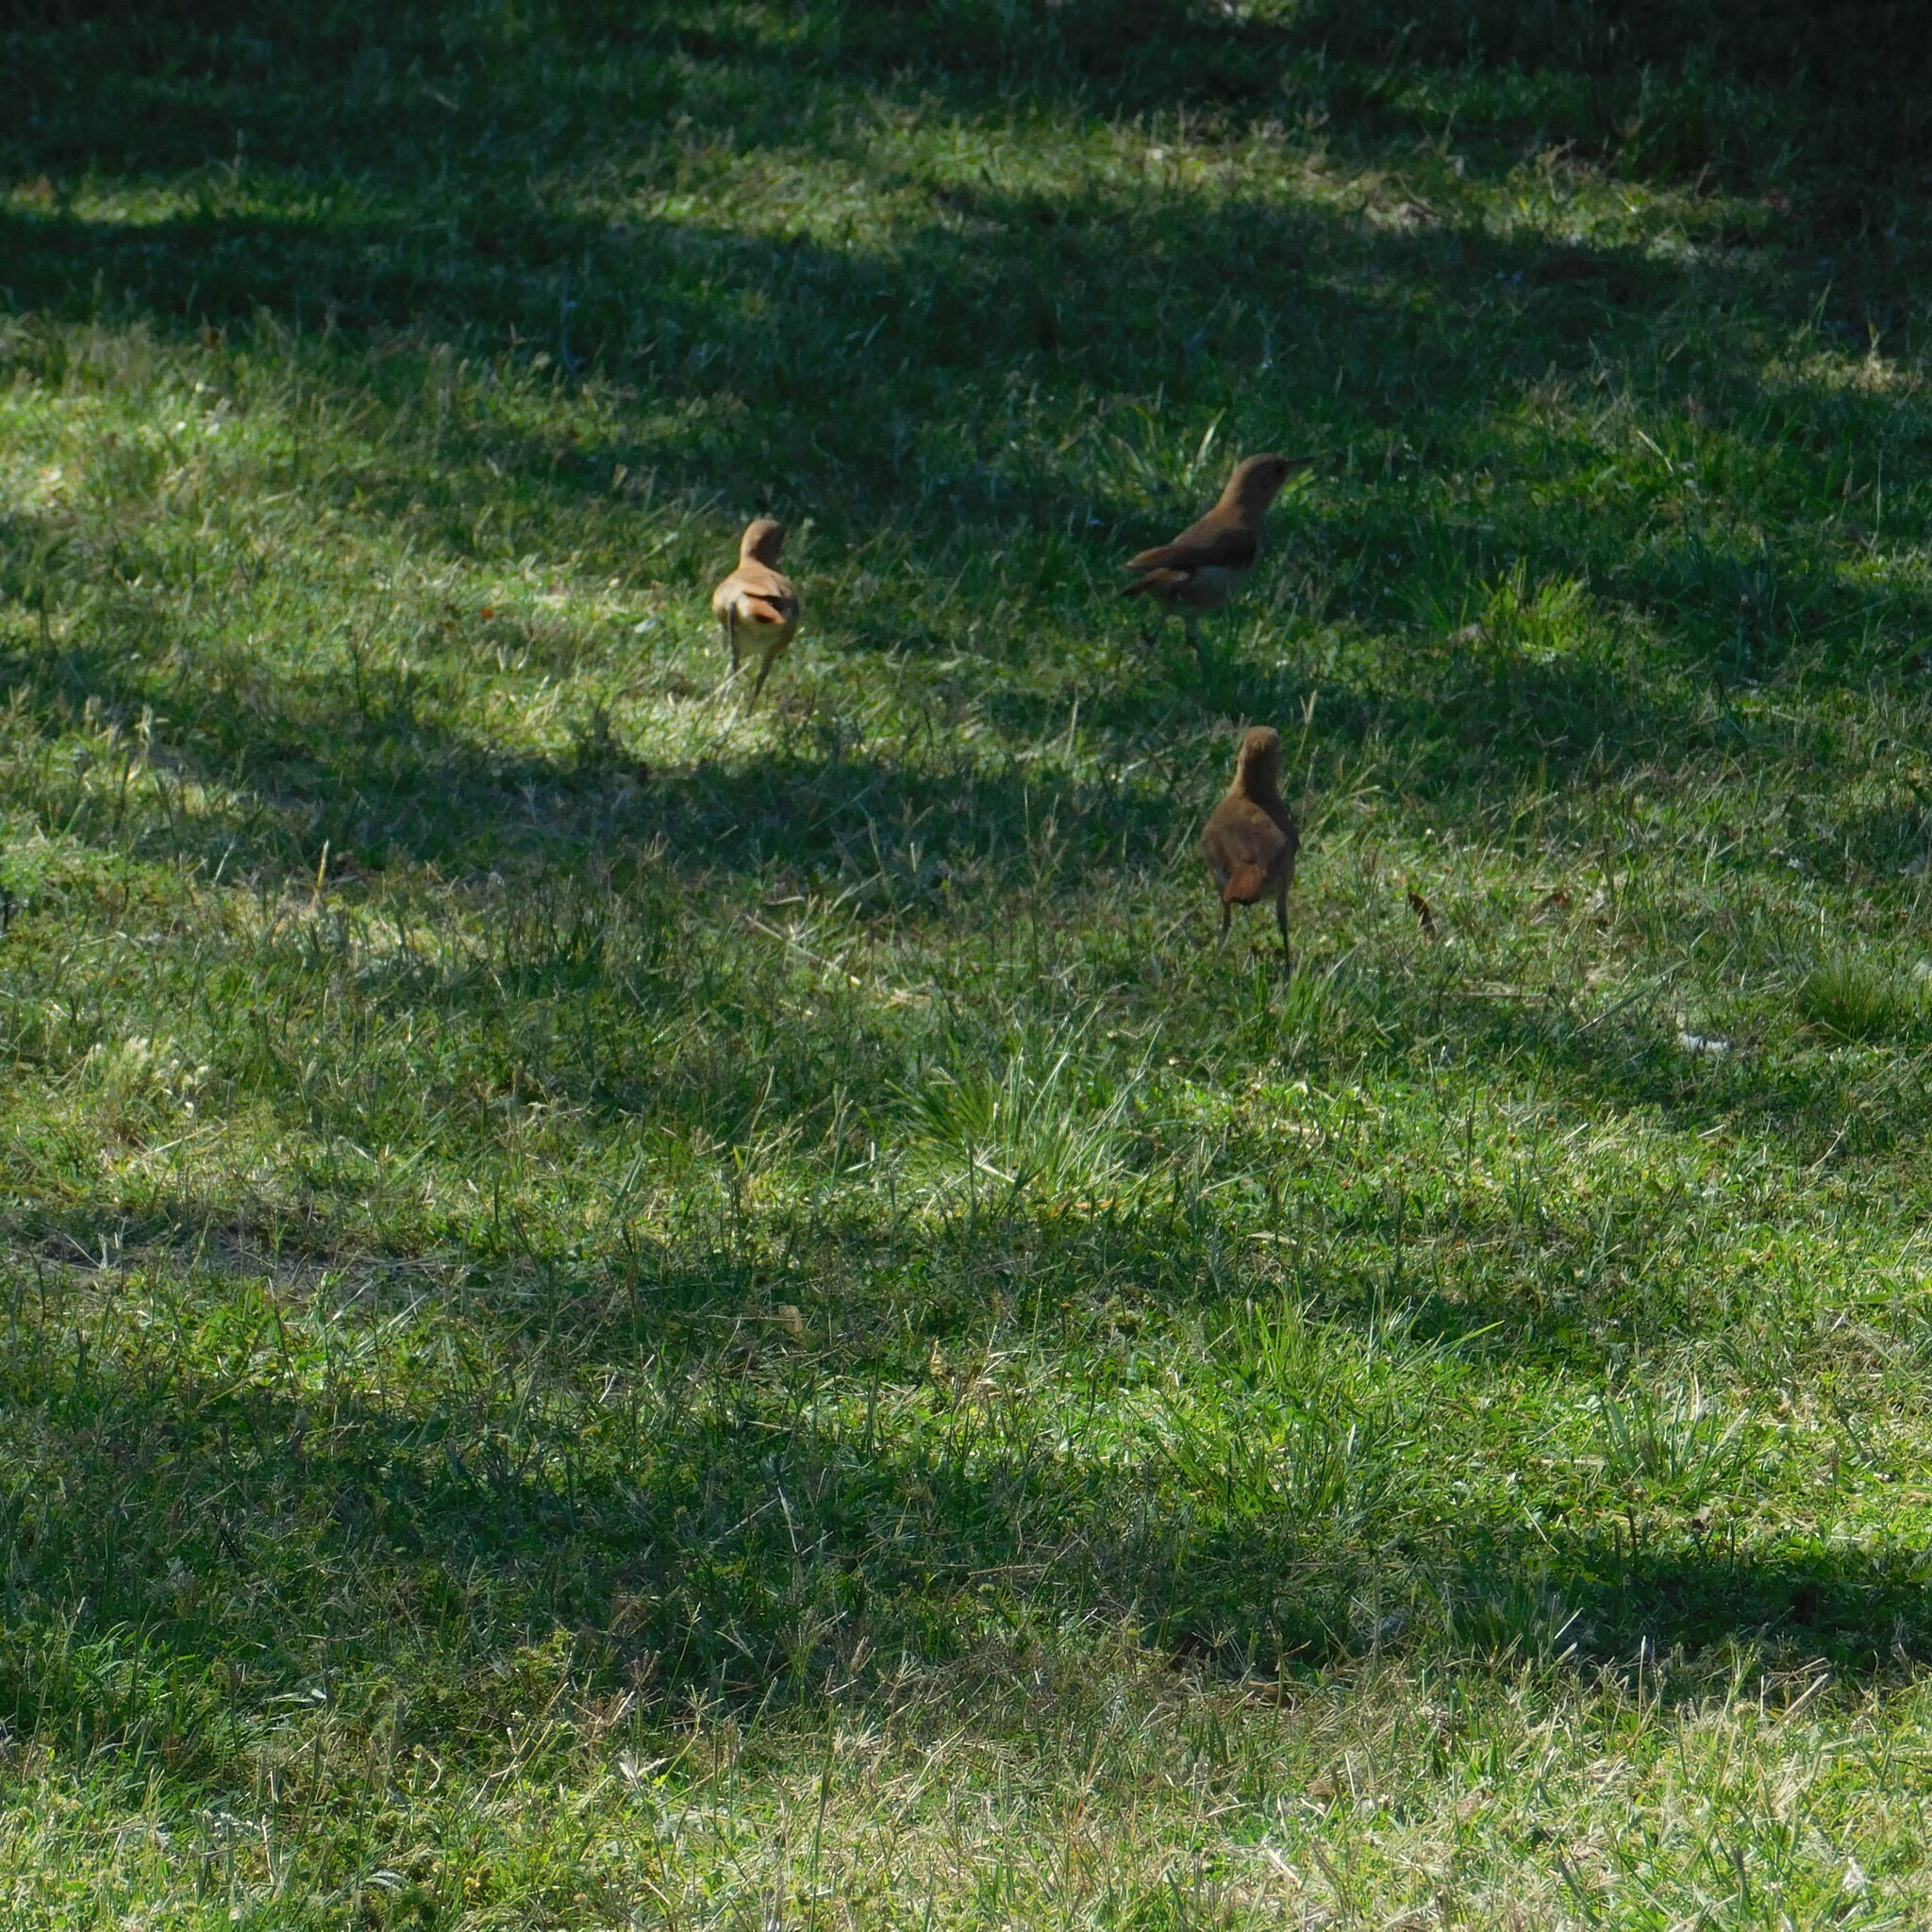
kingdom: Animalia
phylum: Chordata
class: Aves
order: Passeriformes
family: Furnariidae
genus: Furnarius
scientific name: Furnarius rufus
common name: Rufous hornero
